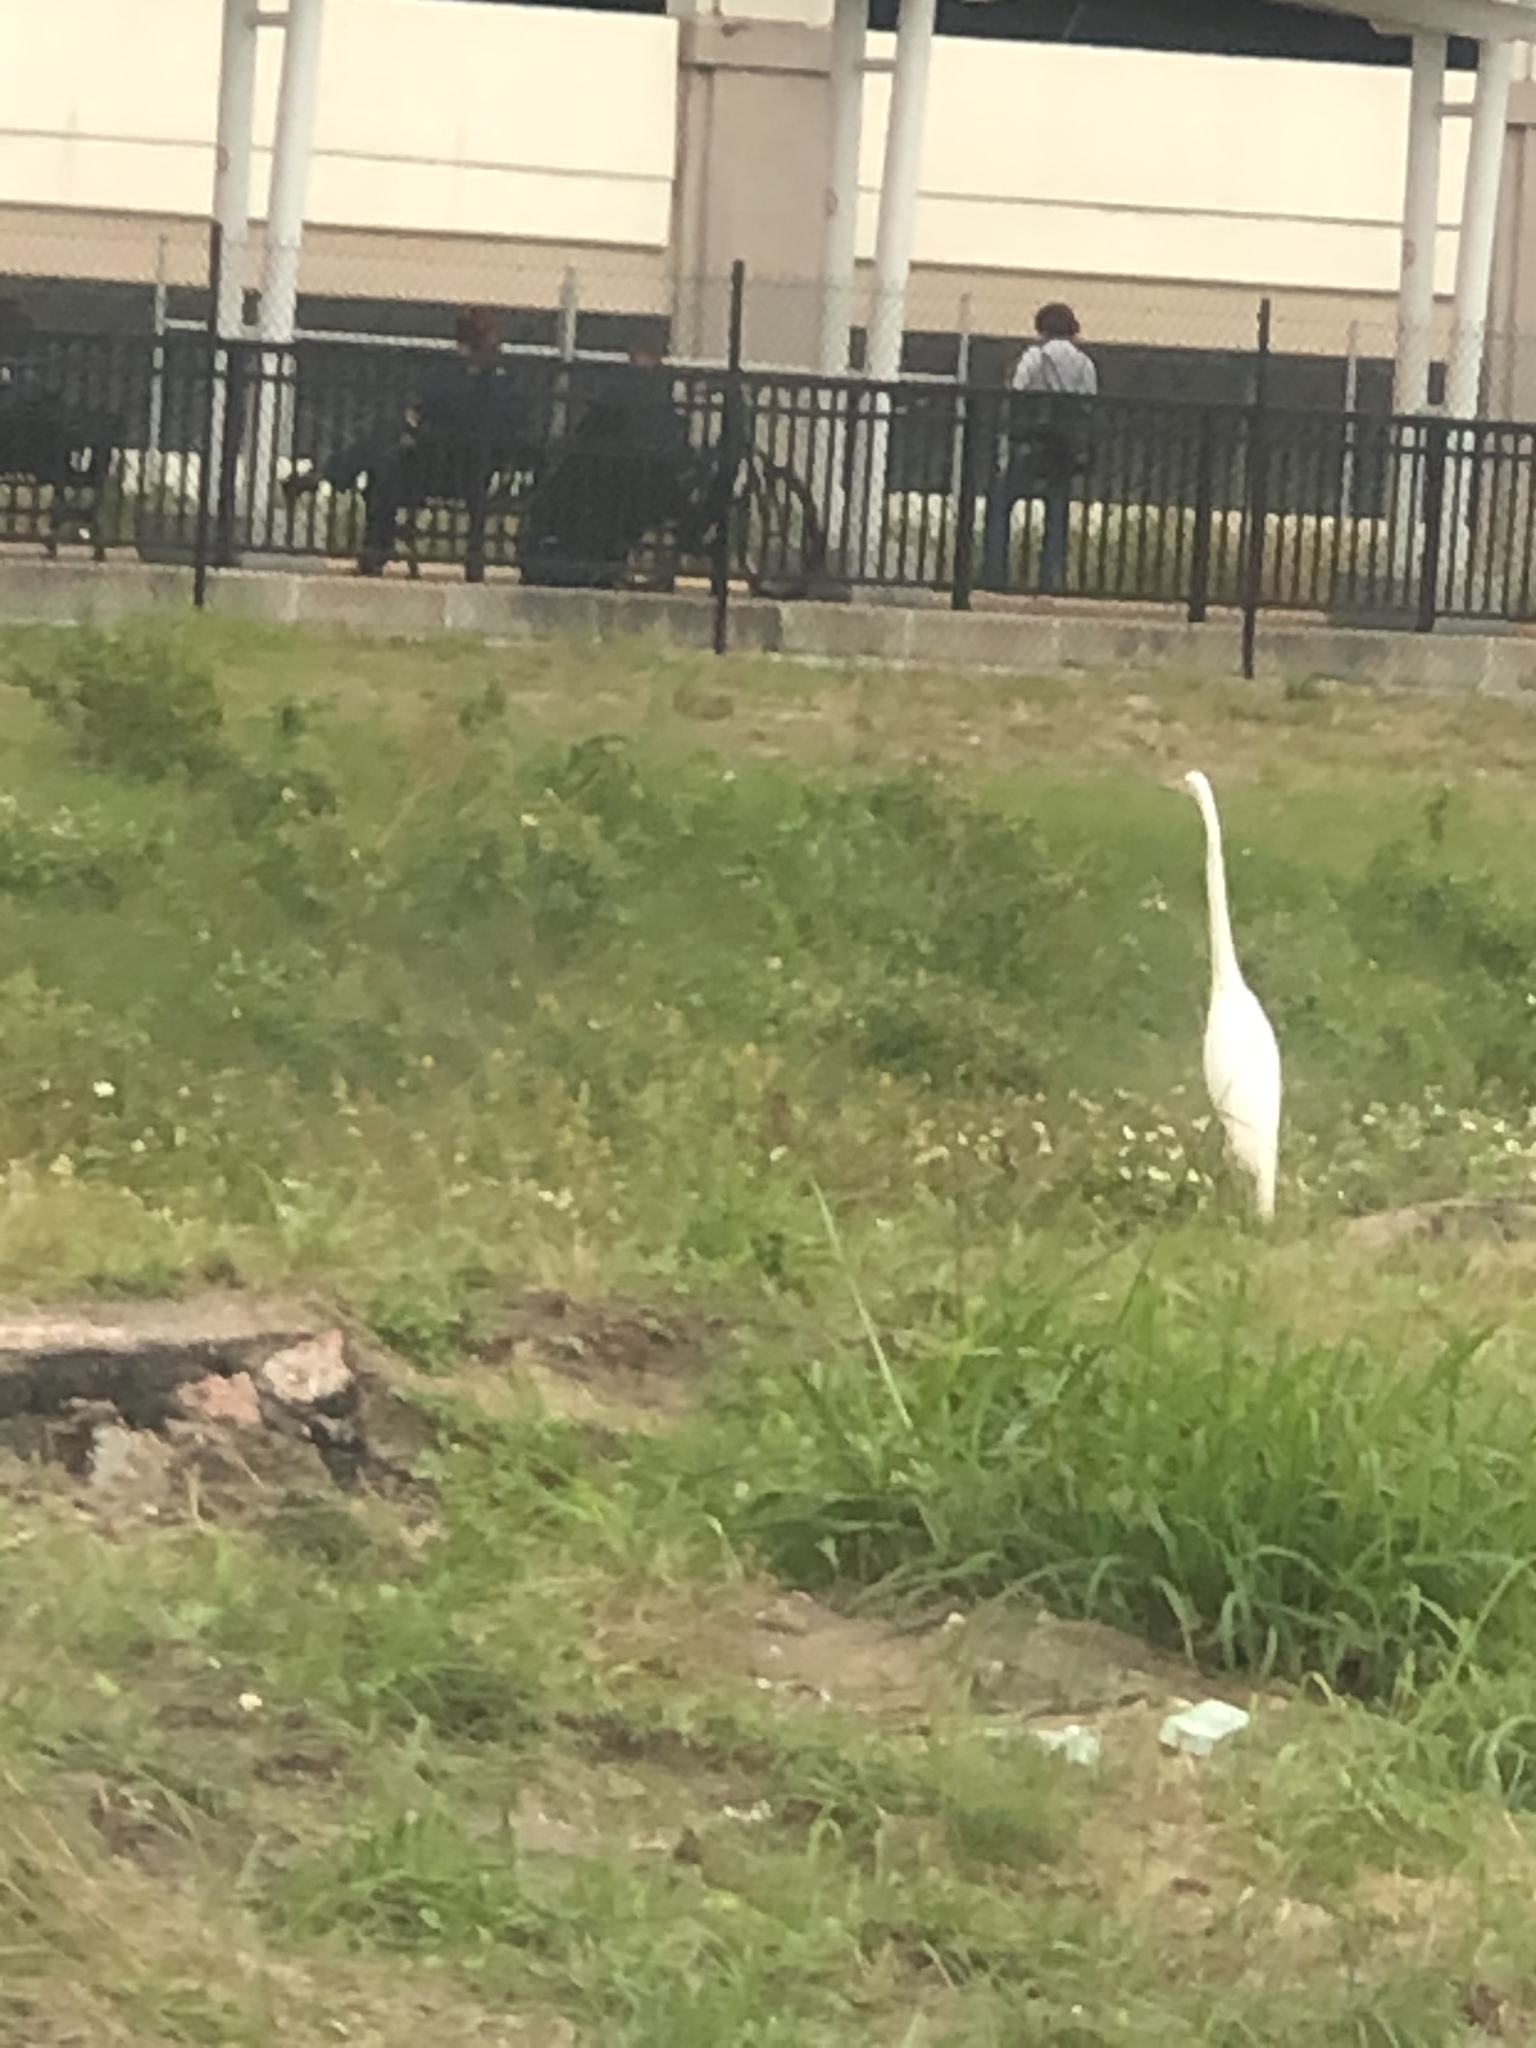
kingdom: Animalia
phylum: Chordata
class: Aves
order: Pelecaniformes
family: Ardeidae
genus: Ardea
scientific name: Ardea alba
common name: Great egret
